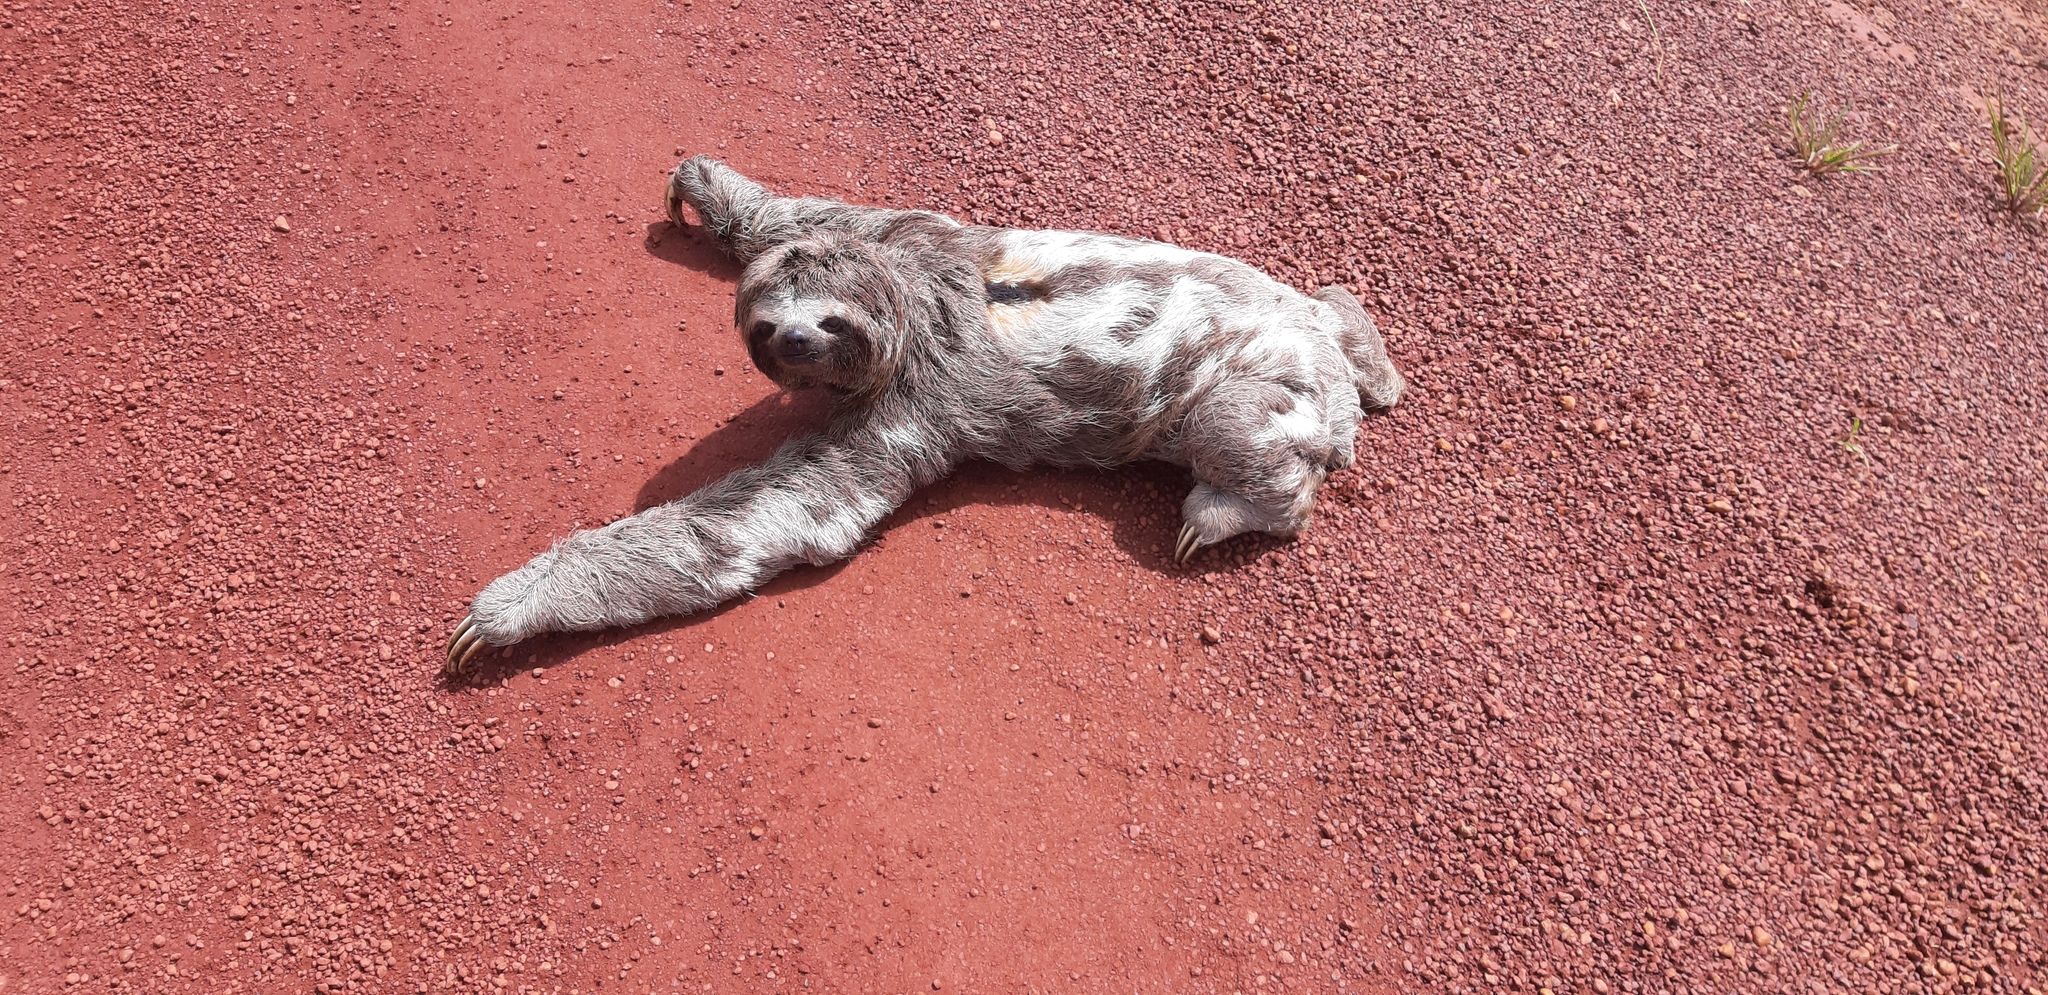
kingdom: Animalia
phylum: Chordata
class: Mammalia
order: Pilosa
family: Bradypodidae
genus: Bradypus
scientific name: Bradypus variegatus
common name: Brown-throated three-toed sloth
